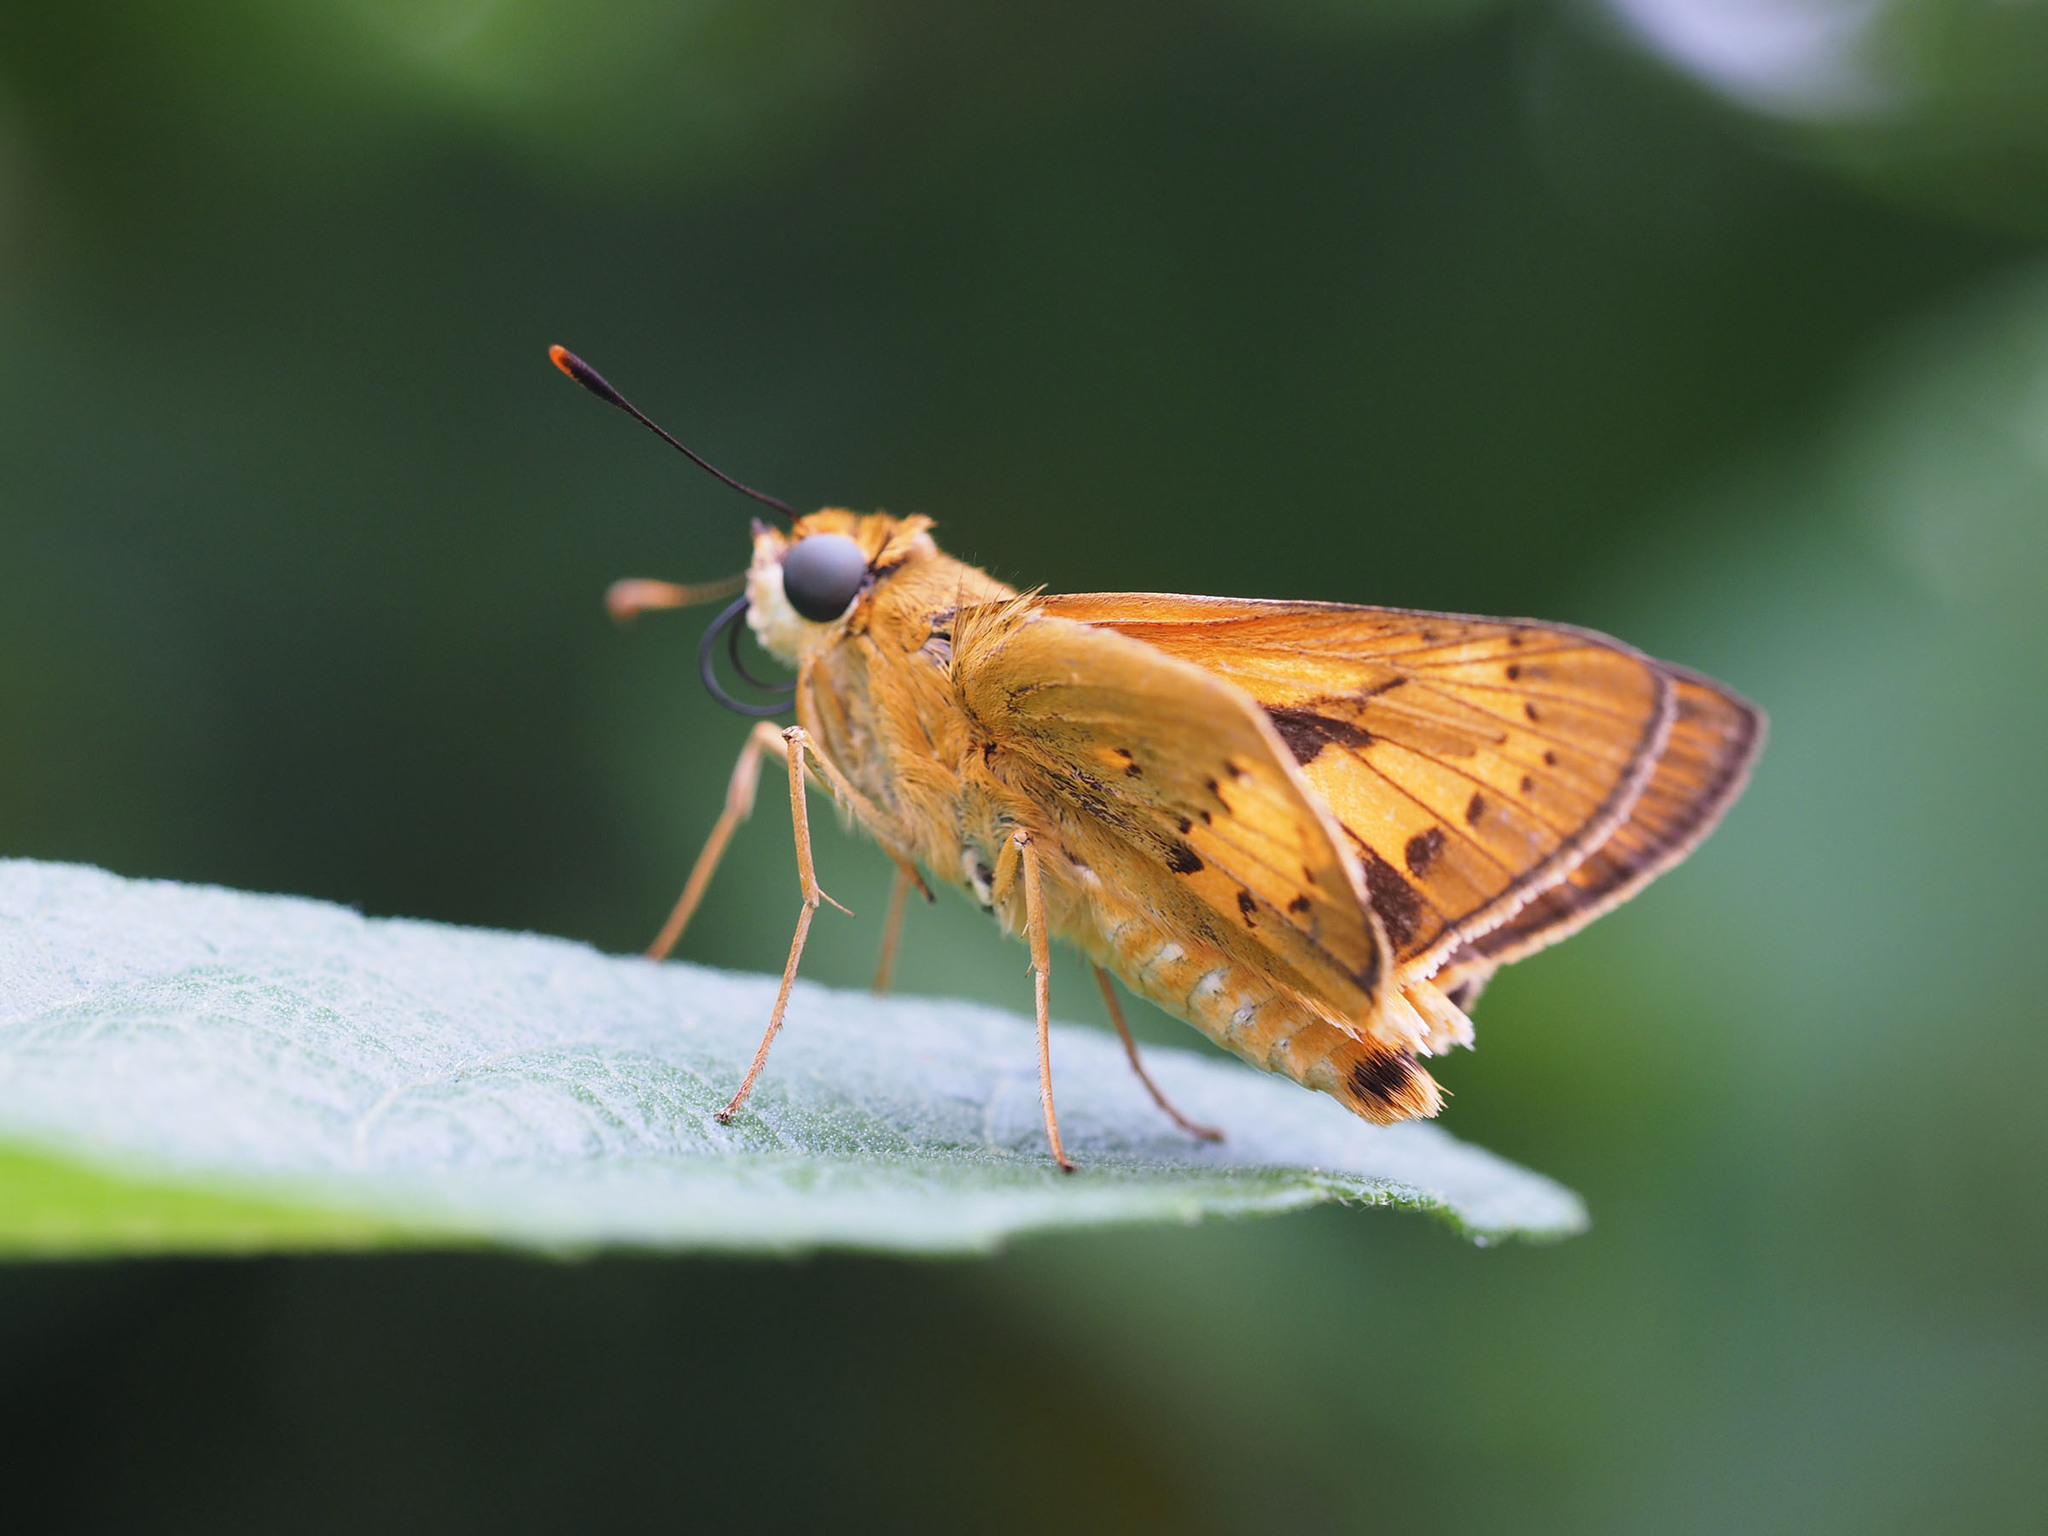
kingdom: Animalia
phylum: Arthropoda
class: Insecta
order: Lepidoptera
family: Hesperiidae
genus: Cephrenes
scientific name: Cephrenes trichopepla
